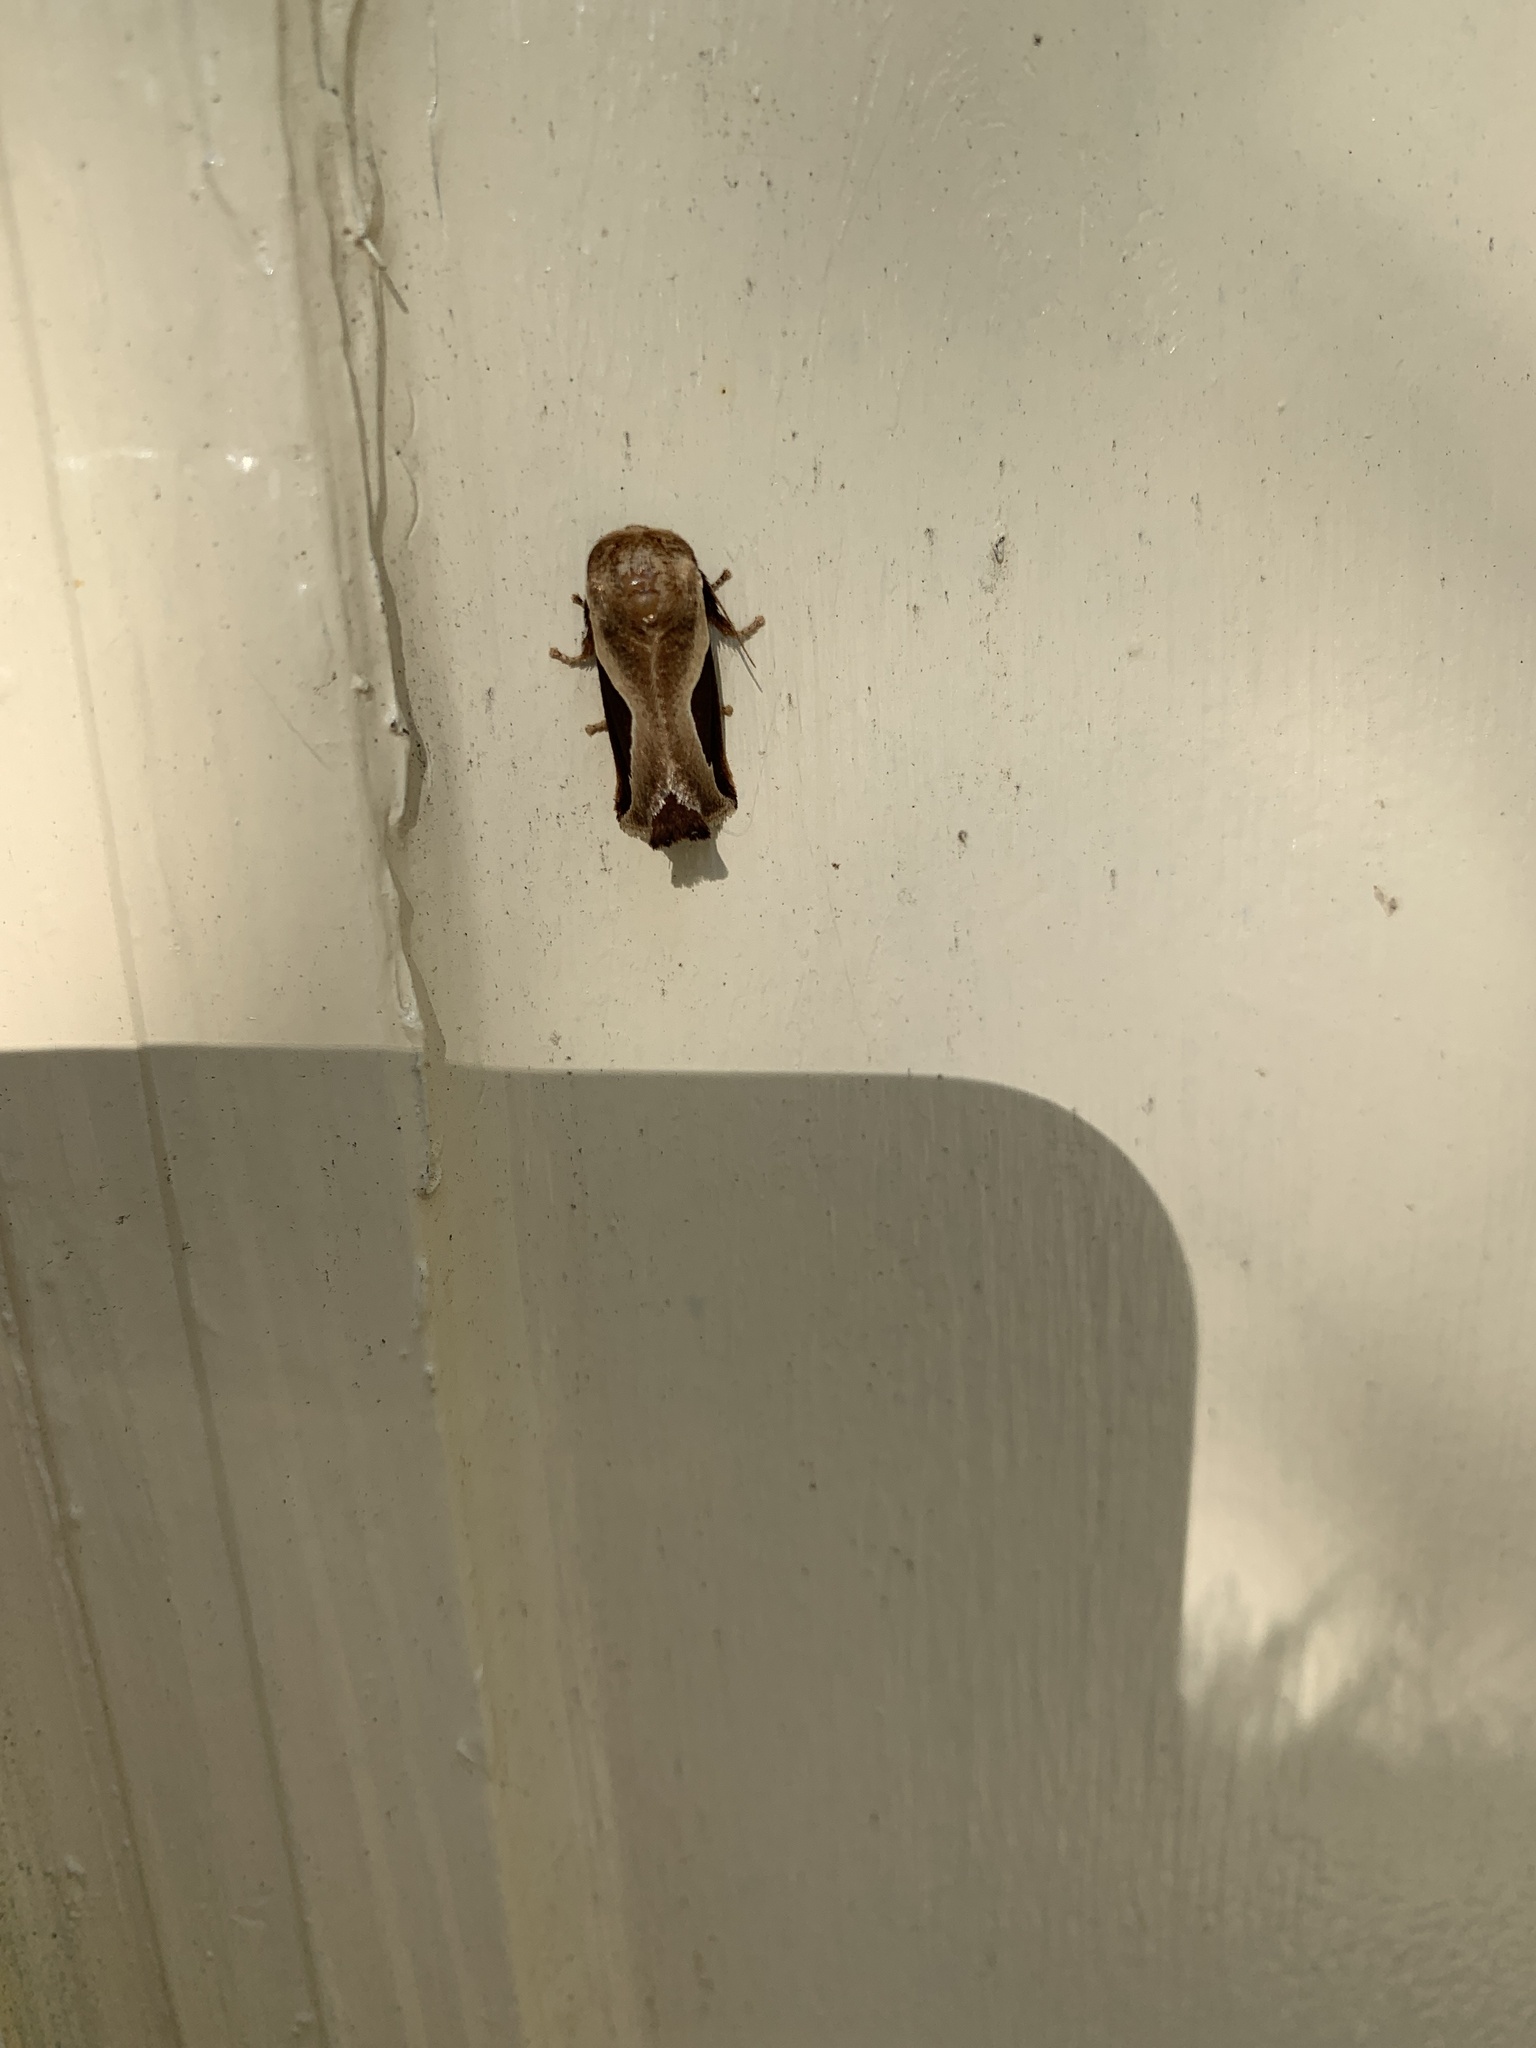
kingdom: Animalia
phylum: Arthropoda
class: Insecta
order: Lepidoptera
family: Limacodidae
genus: Prolimacodes
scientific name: Prolimacodes badia
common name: Skiff moth
